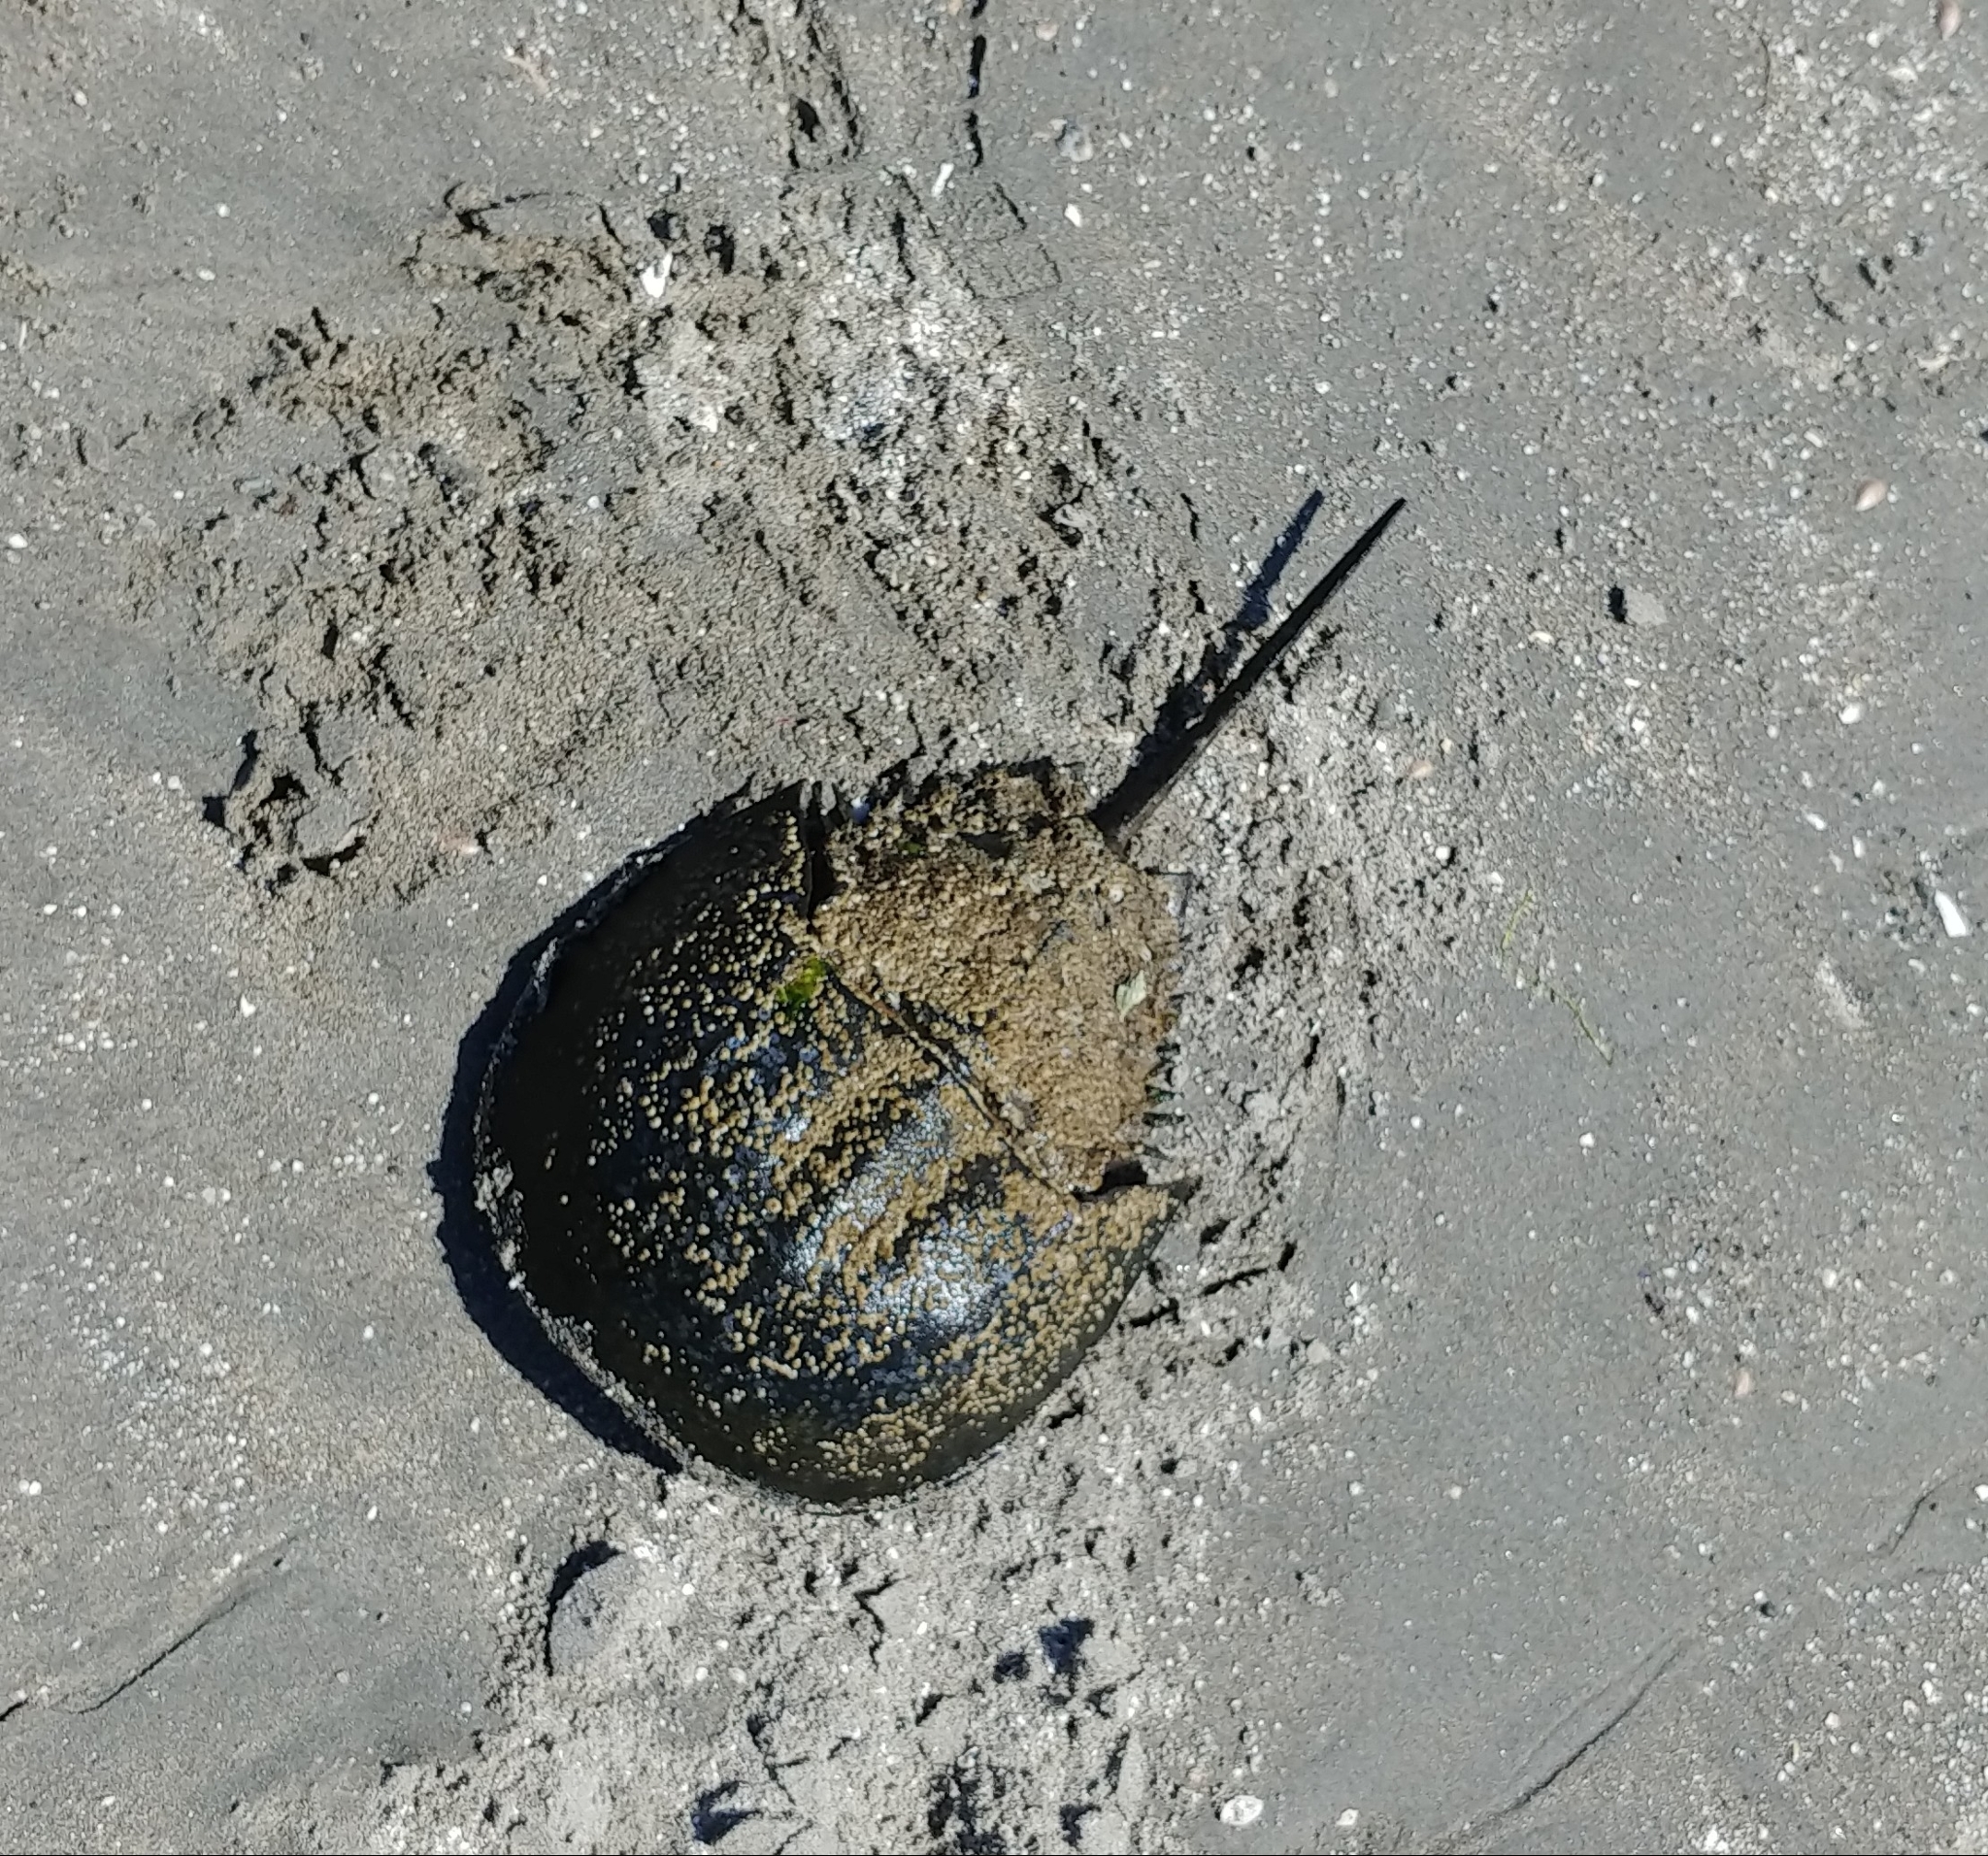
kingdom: Animalia
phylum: Arthropoda
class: Merostomata
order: Xiphosurida
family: Limulidae
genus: Limulus
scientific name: Limulus polyphemus
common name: Horseshoe crab
